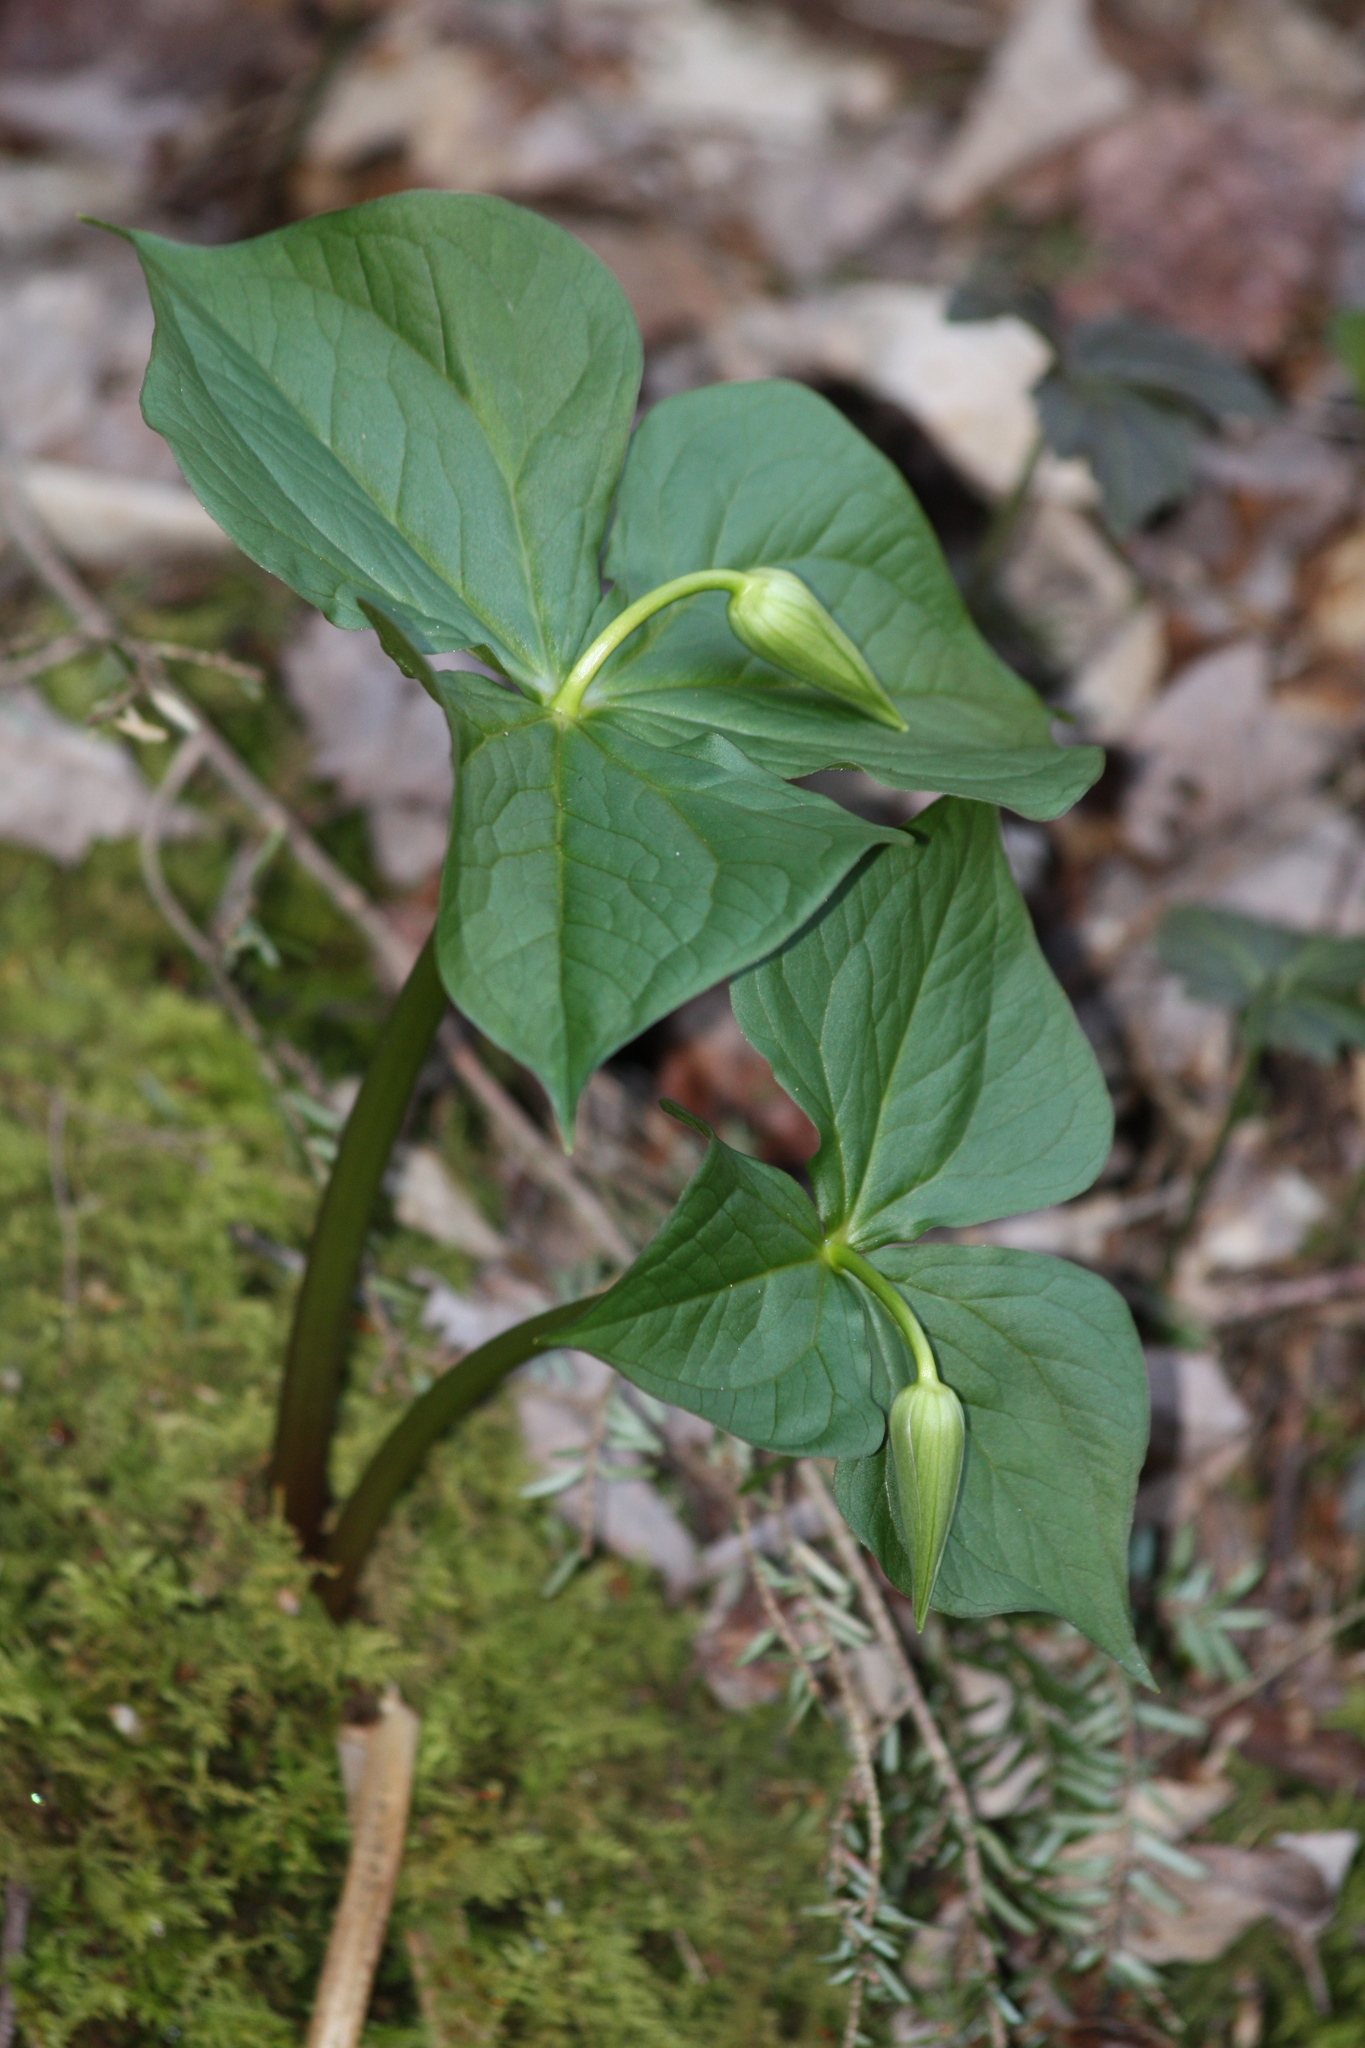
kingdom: Plantae
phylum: Tracheophyta
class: Liliopsida
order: Liliales
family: Melanthiaceae
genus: Trillium
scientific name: Trillium erectum
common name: Purple trillium
